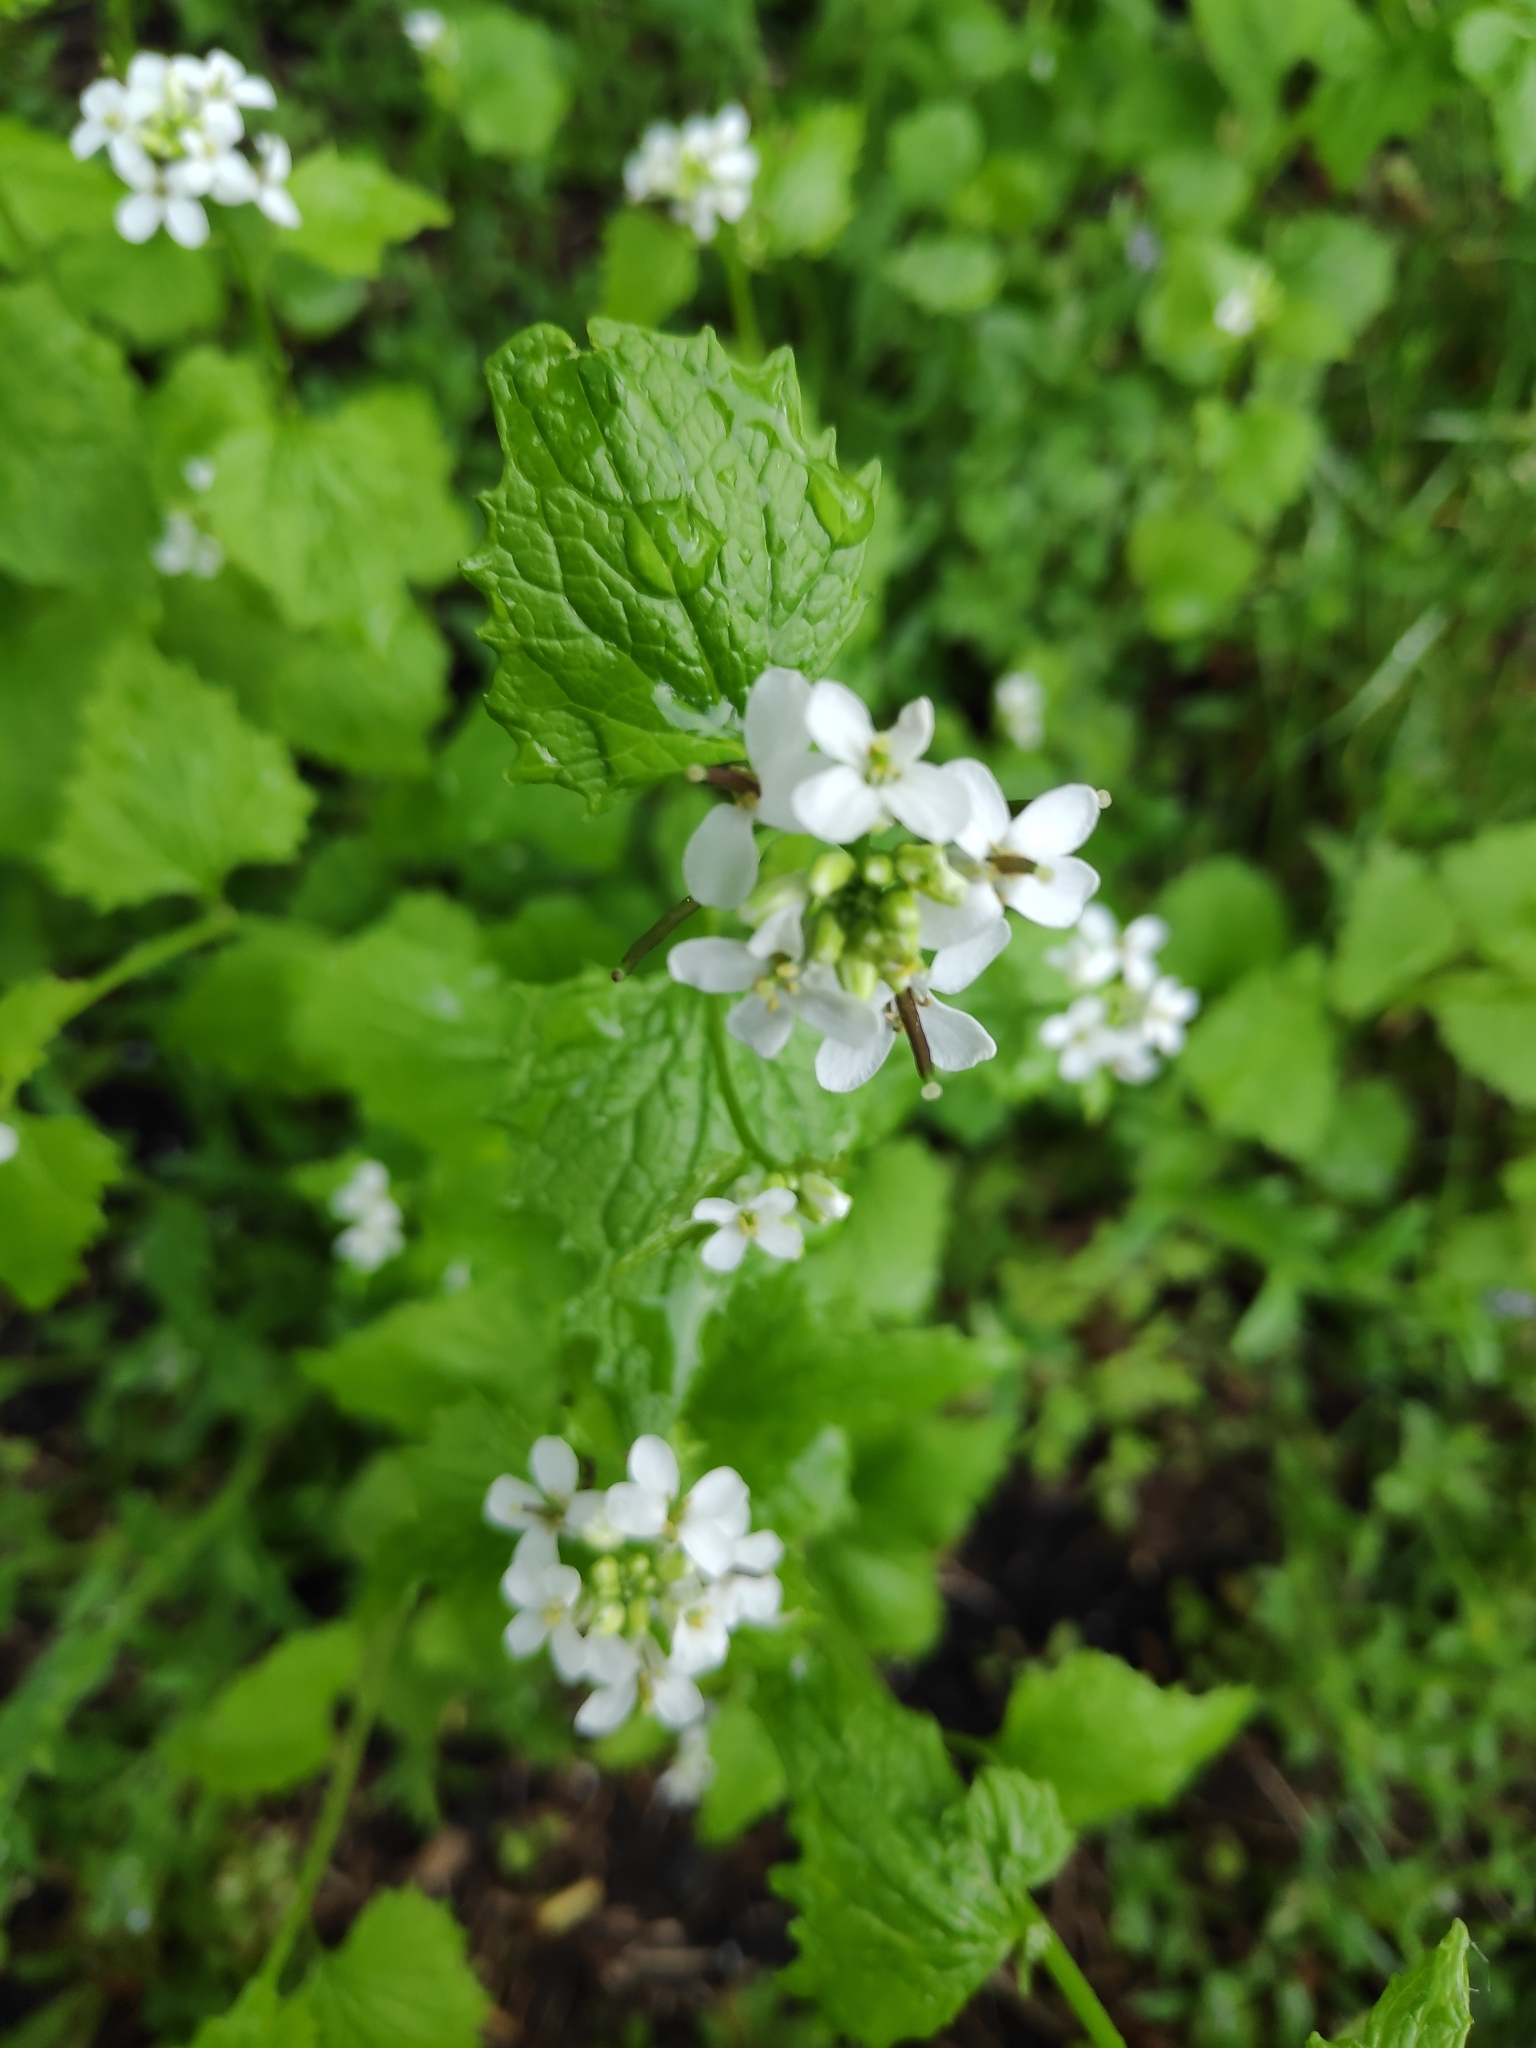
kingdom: Plantae
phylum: Tracheophyta
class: Magnoliopsida
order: Brassicales
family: Brassicaceae
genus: Alliaria
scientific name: Alliaria petiolata
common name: Garlic mustard
